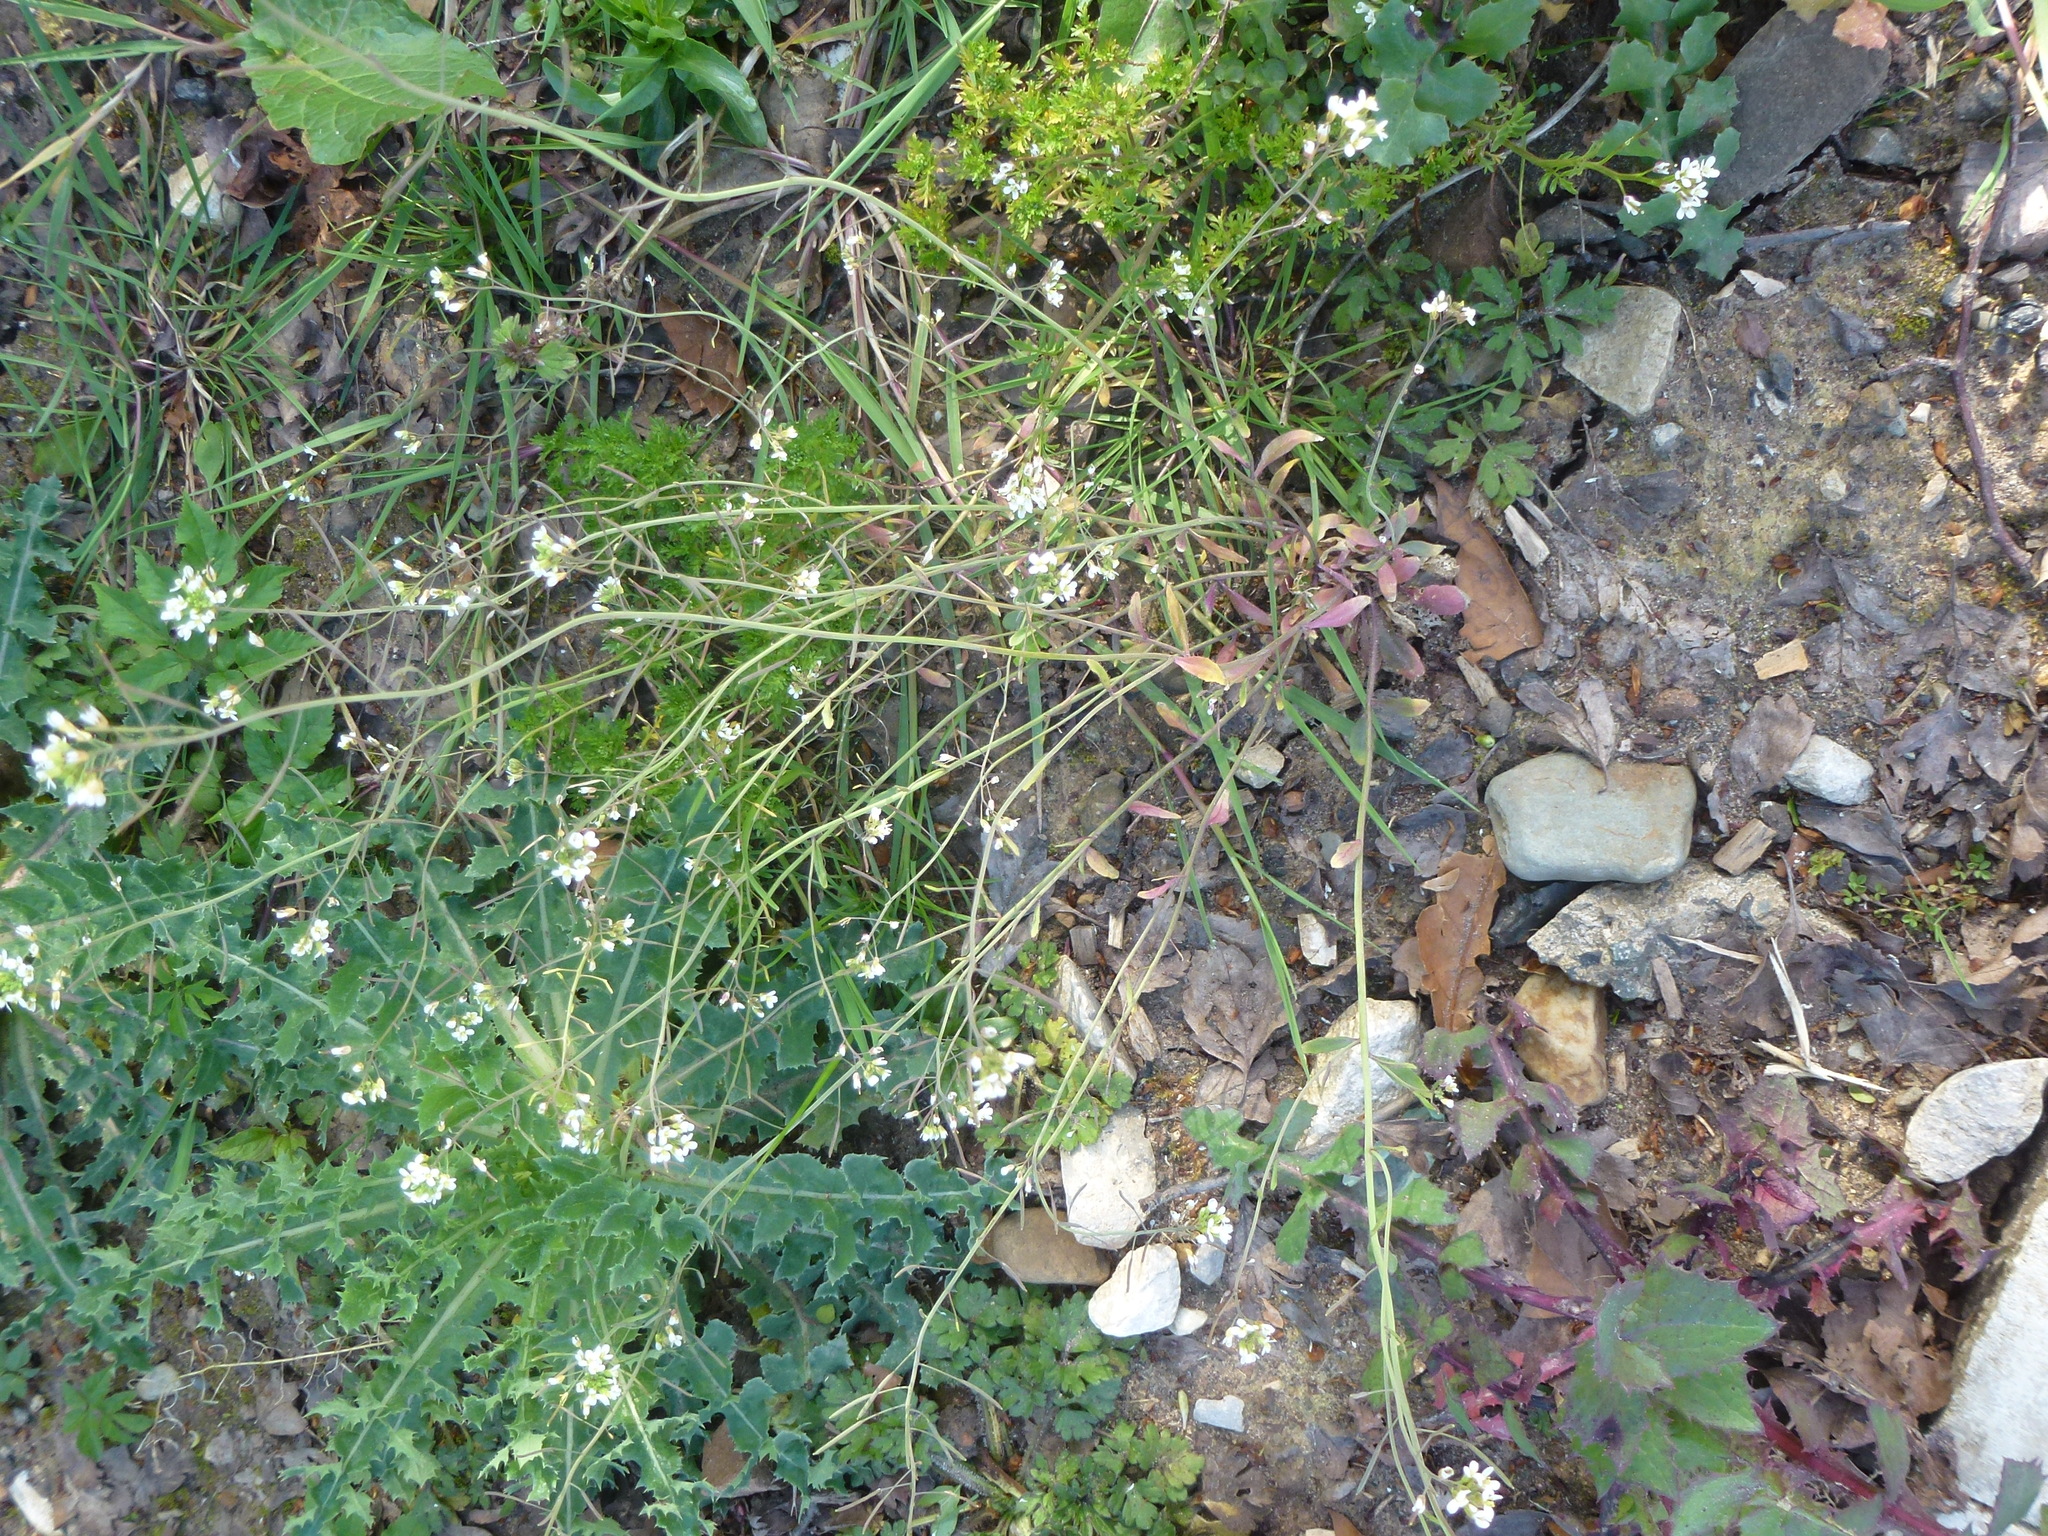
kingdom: Plantae
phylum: Tracheophyta
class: Magnoliopsida
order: Brassicales
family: Brassicaceae
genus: Arabidopsis
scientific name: Arabidopsis thaliana
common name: Thale cress
